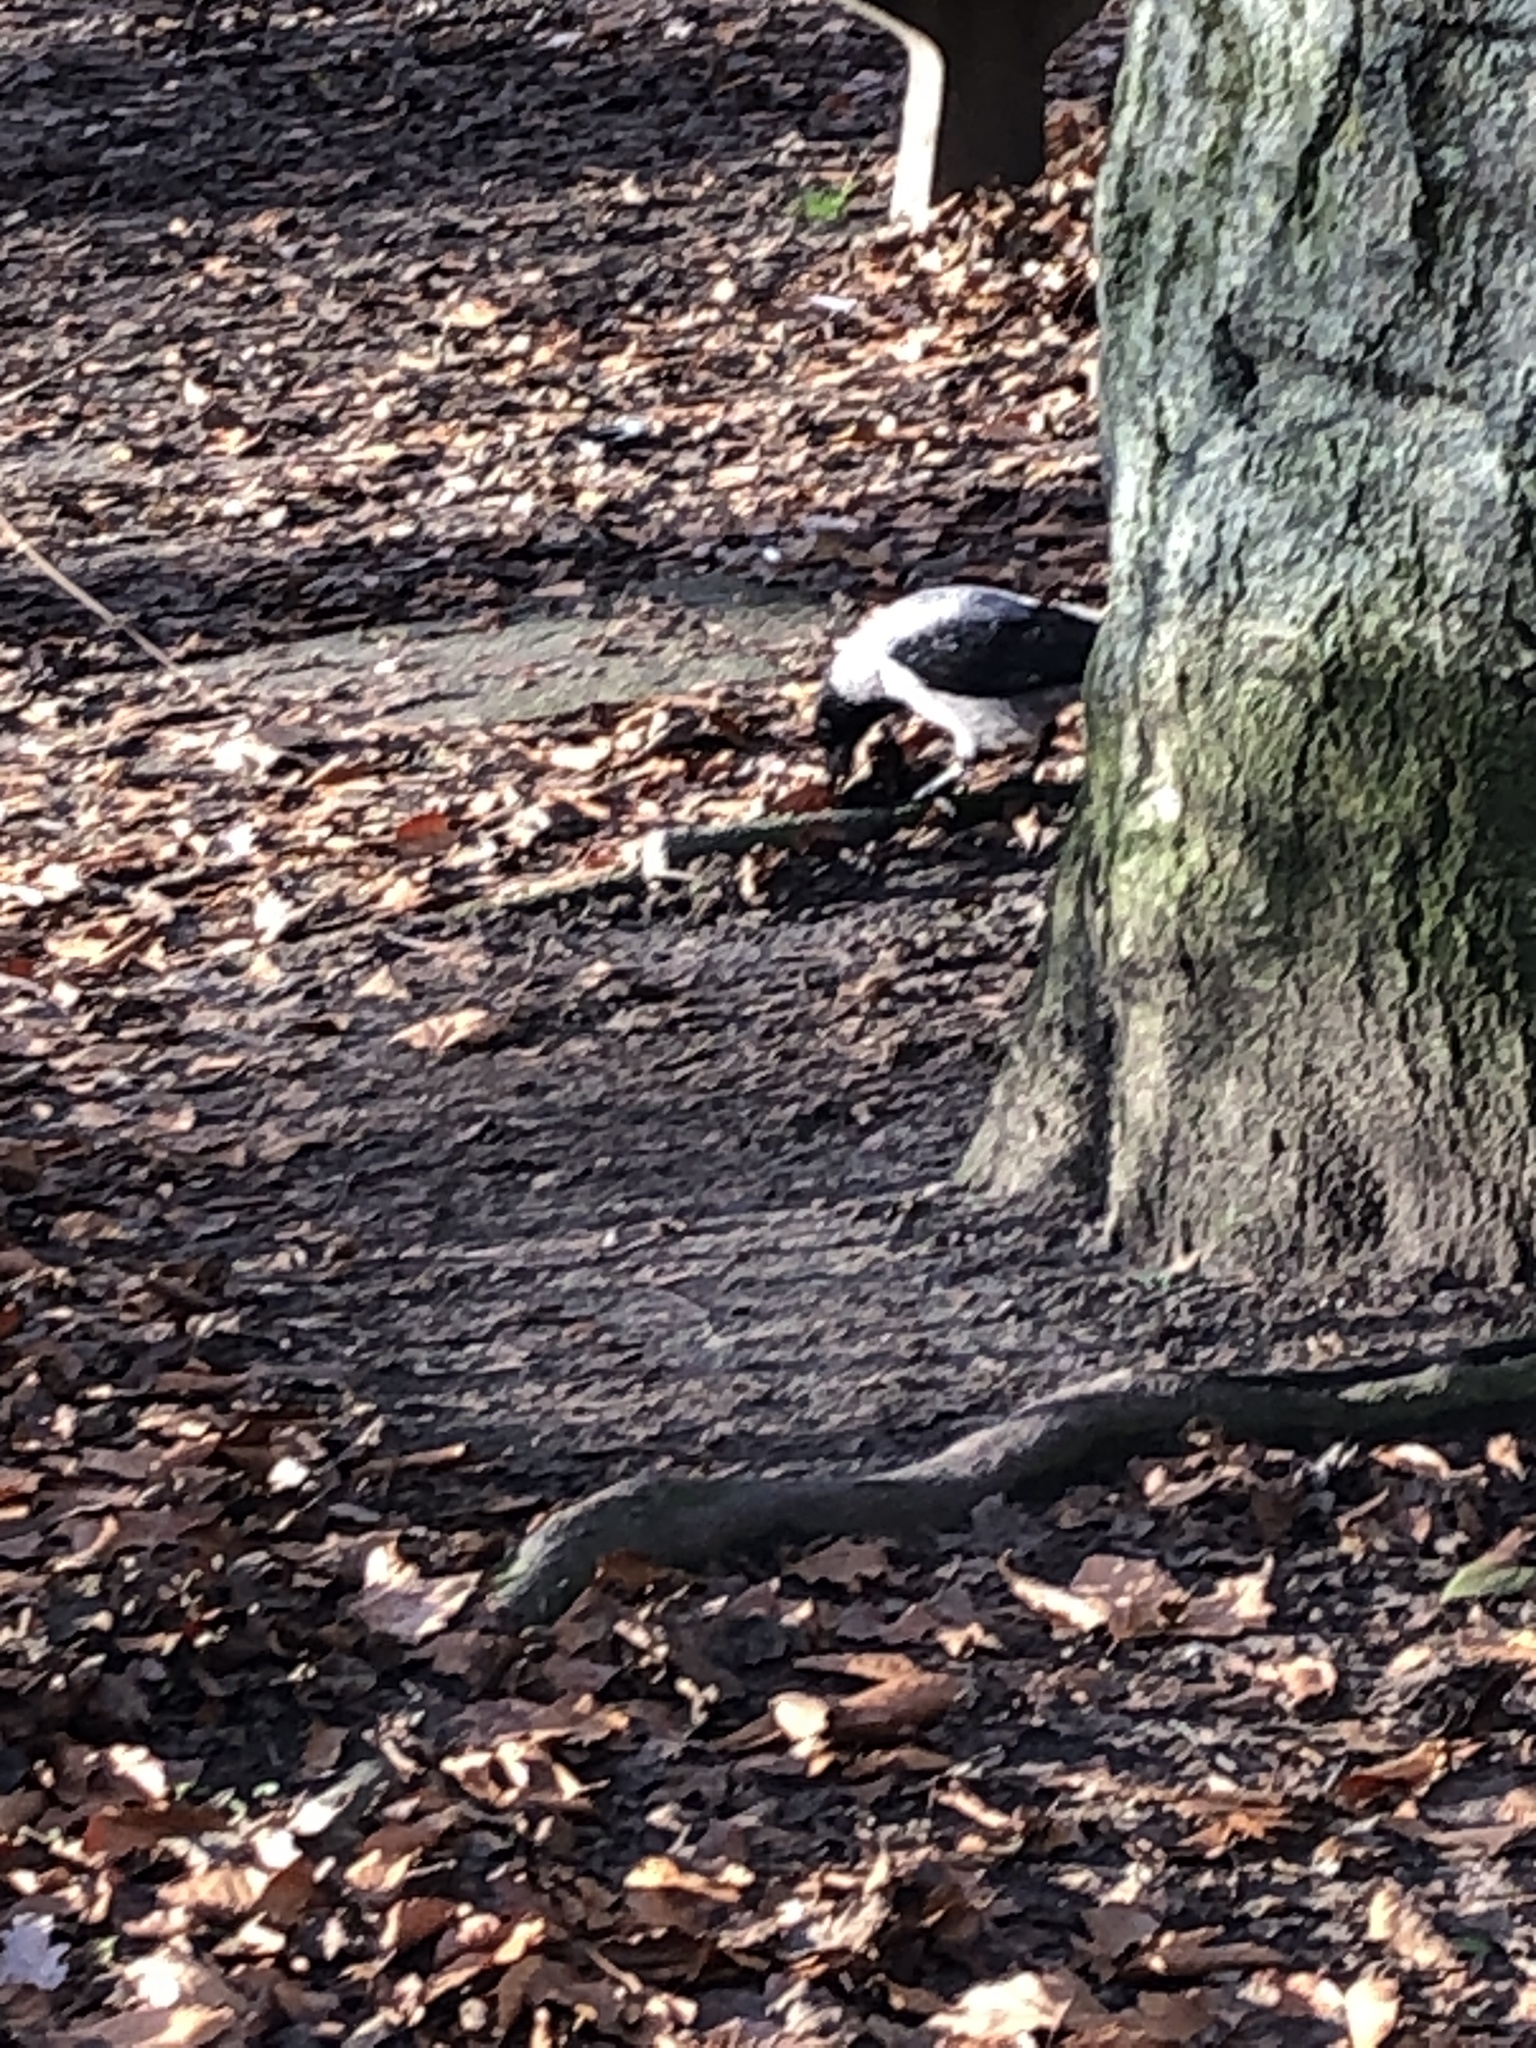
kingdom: Animalia
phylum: Chordata
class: Aves
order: Passeriformes
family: Corvidae
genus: Corvus
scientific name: Corvus cornix
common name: Hooded crow
